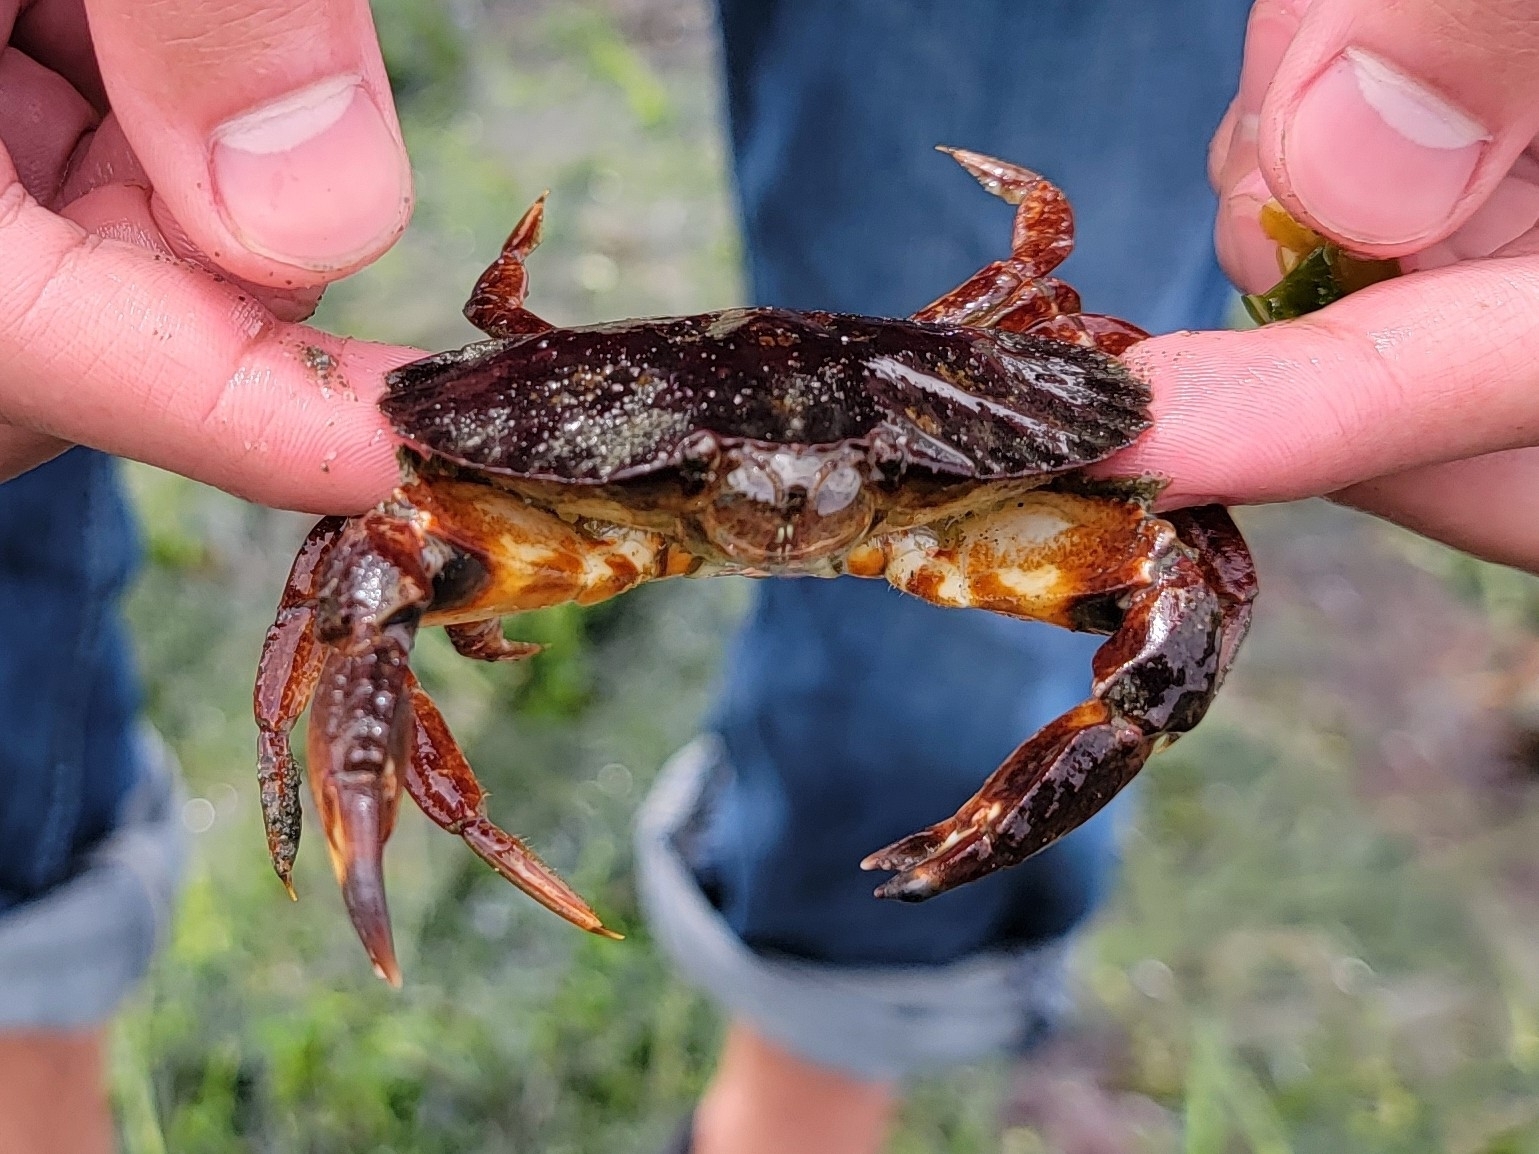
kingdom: Animalia
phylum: Arthropoda
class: Malacostraca
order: Decapoda
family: Cancridae
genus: Cancer
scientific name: Cancer productus
